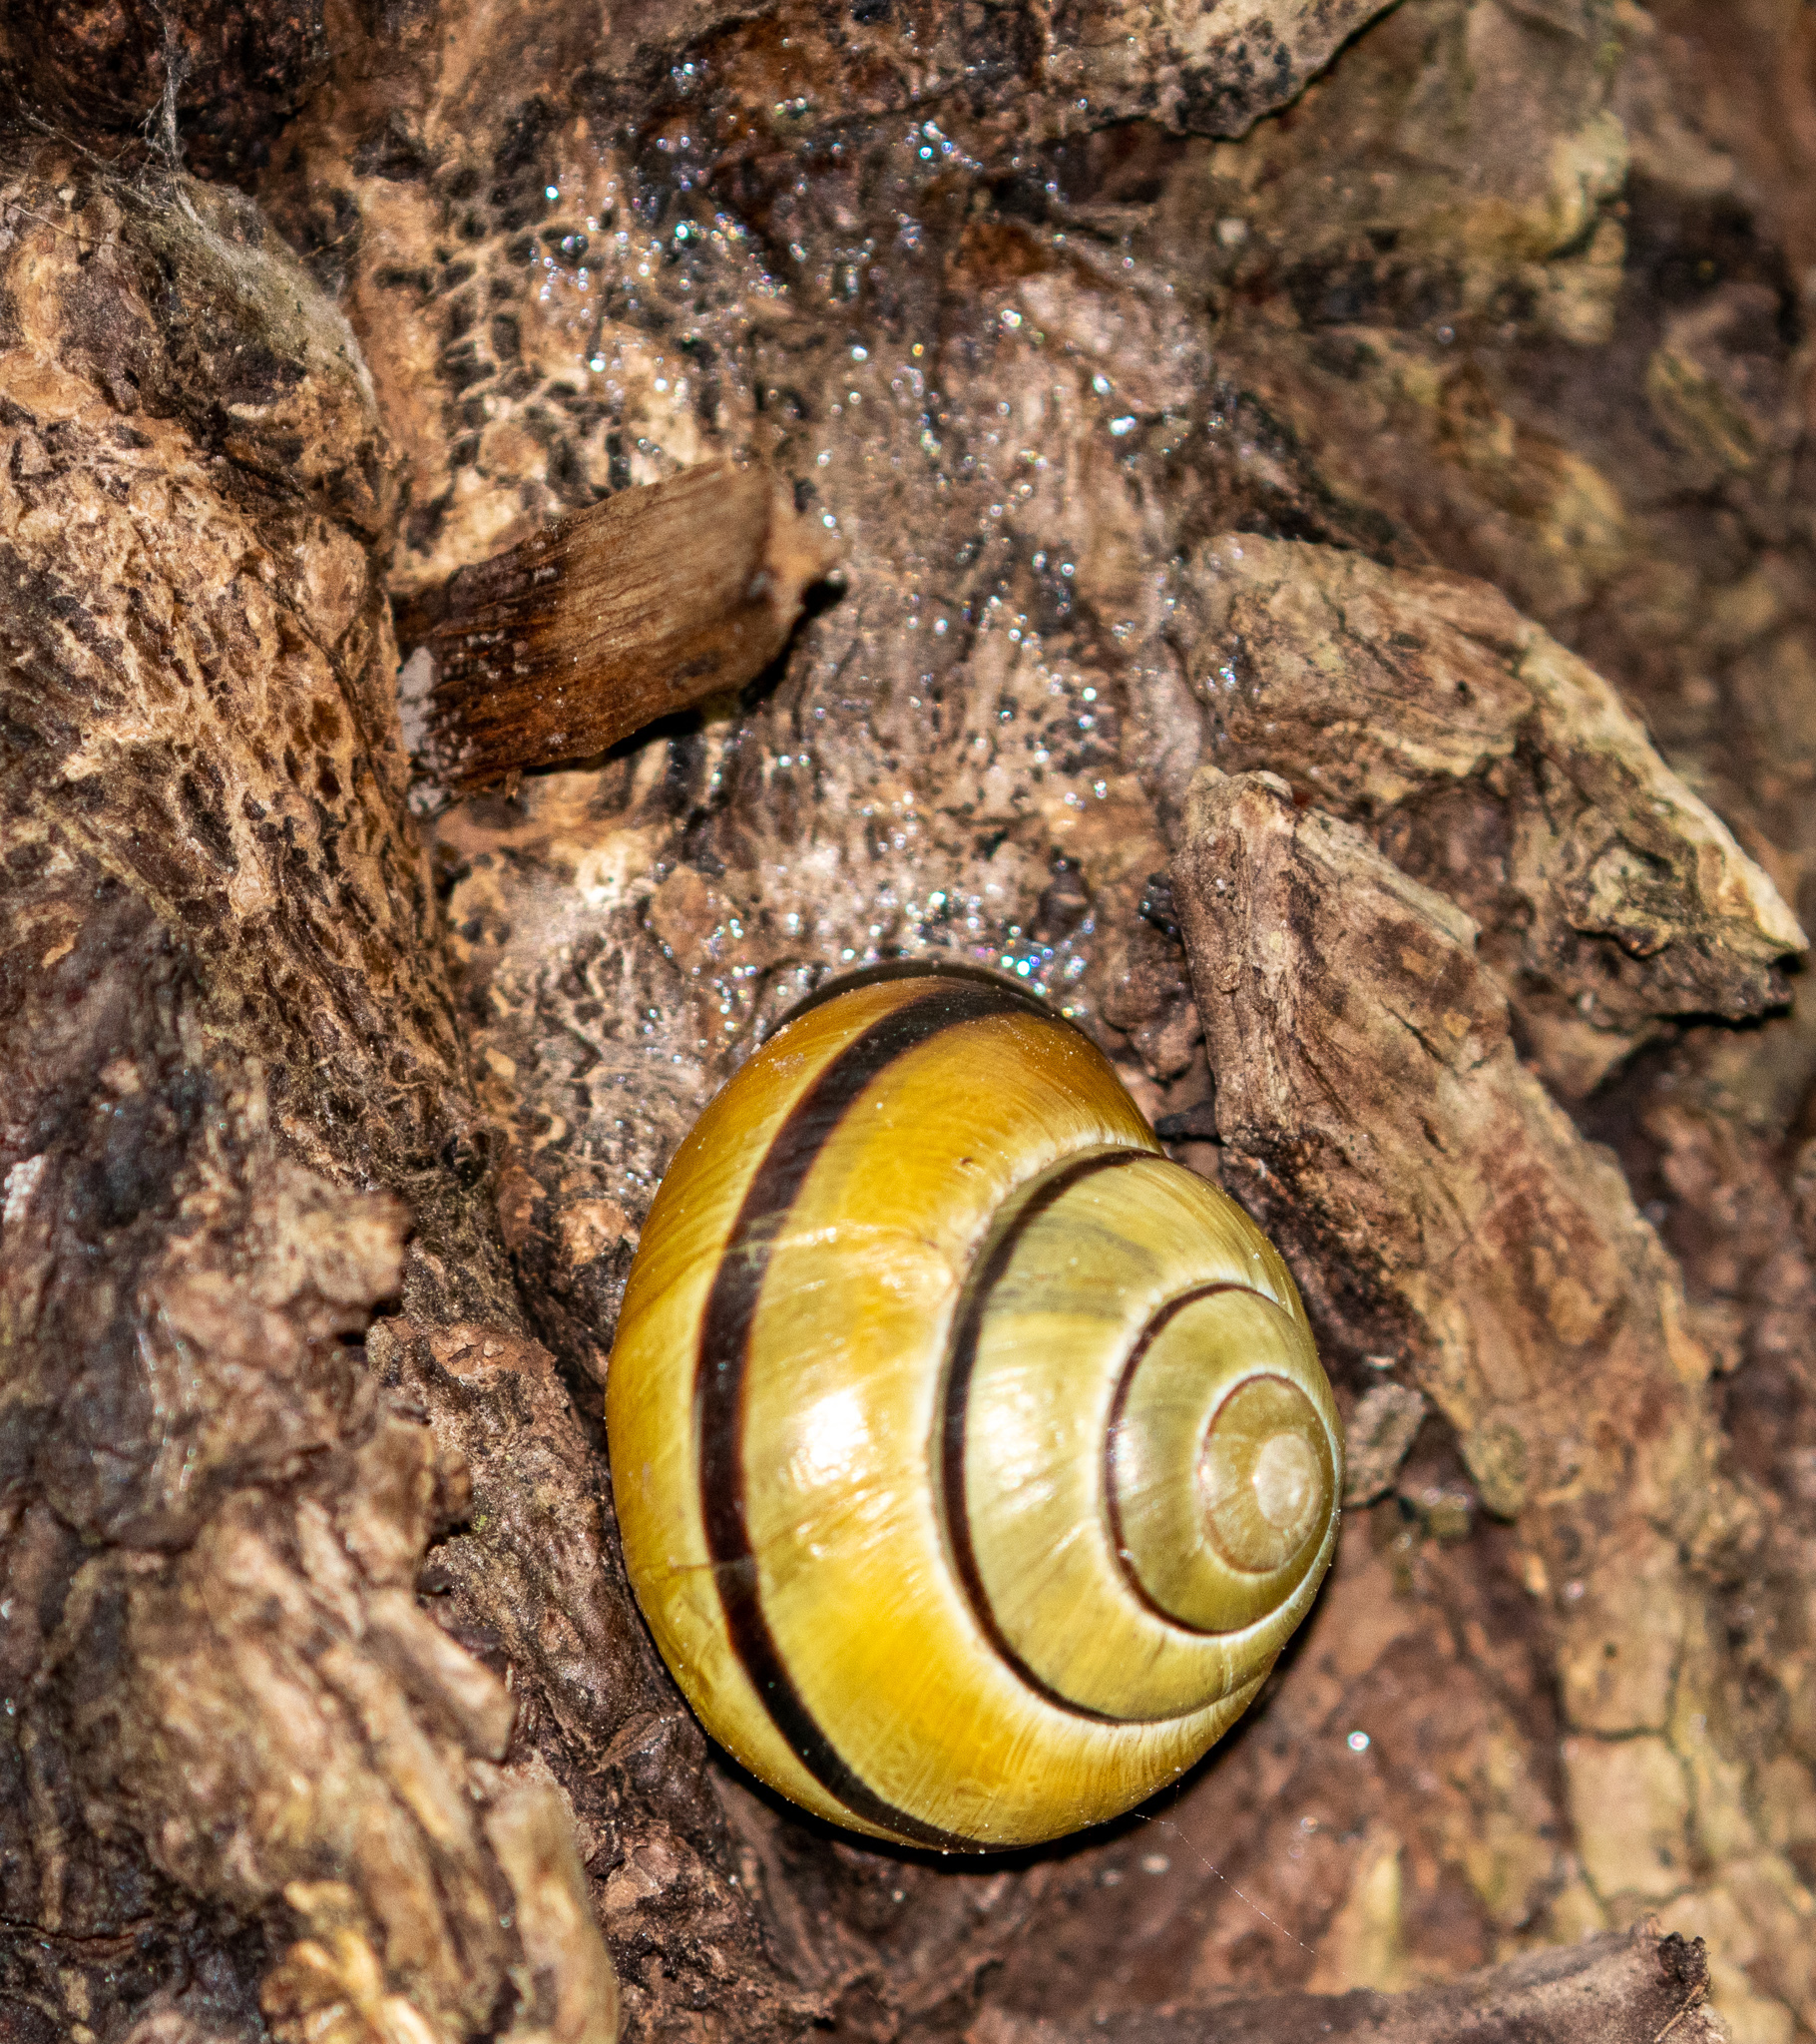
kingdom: Animalia
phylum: Mollusca
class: Gastropoda
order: Stylommatophora
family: Helicidae
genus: Cepaea
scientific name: Cepaea nemoralis
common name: Grovesnail
